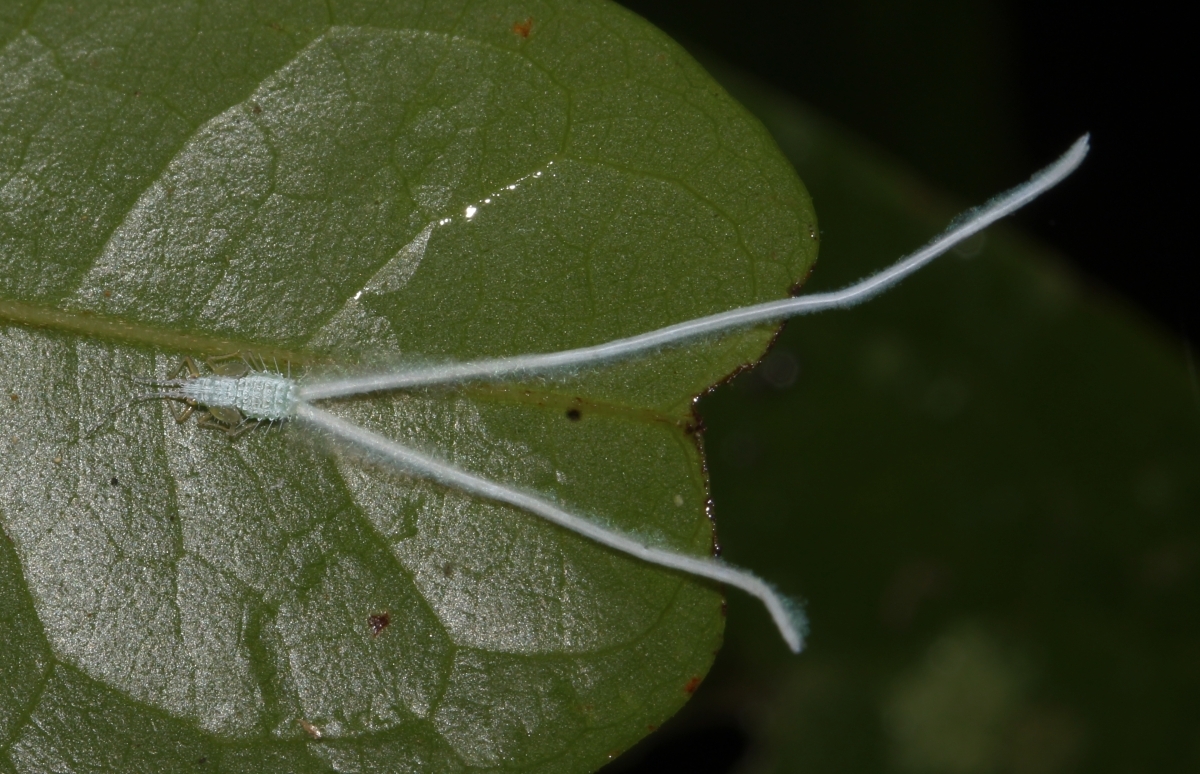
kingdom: Animalia
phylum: Arthropoda
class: Insecta
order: Hemiptera
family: Psyllidae
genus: Hollisiana
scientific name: Hollisiana
